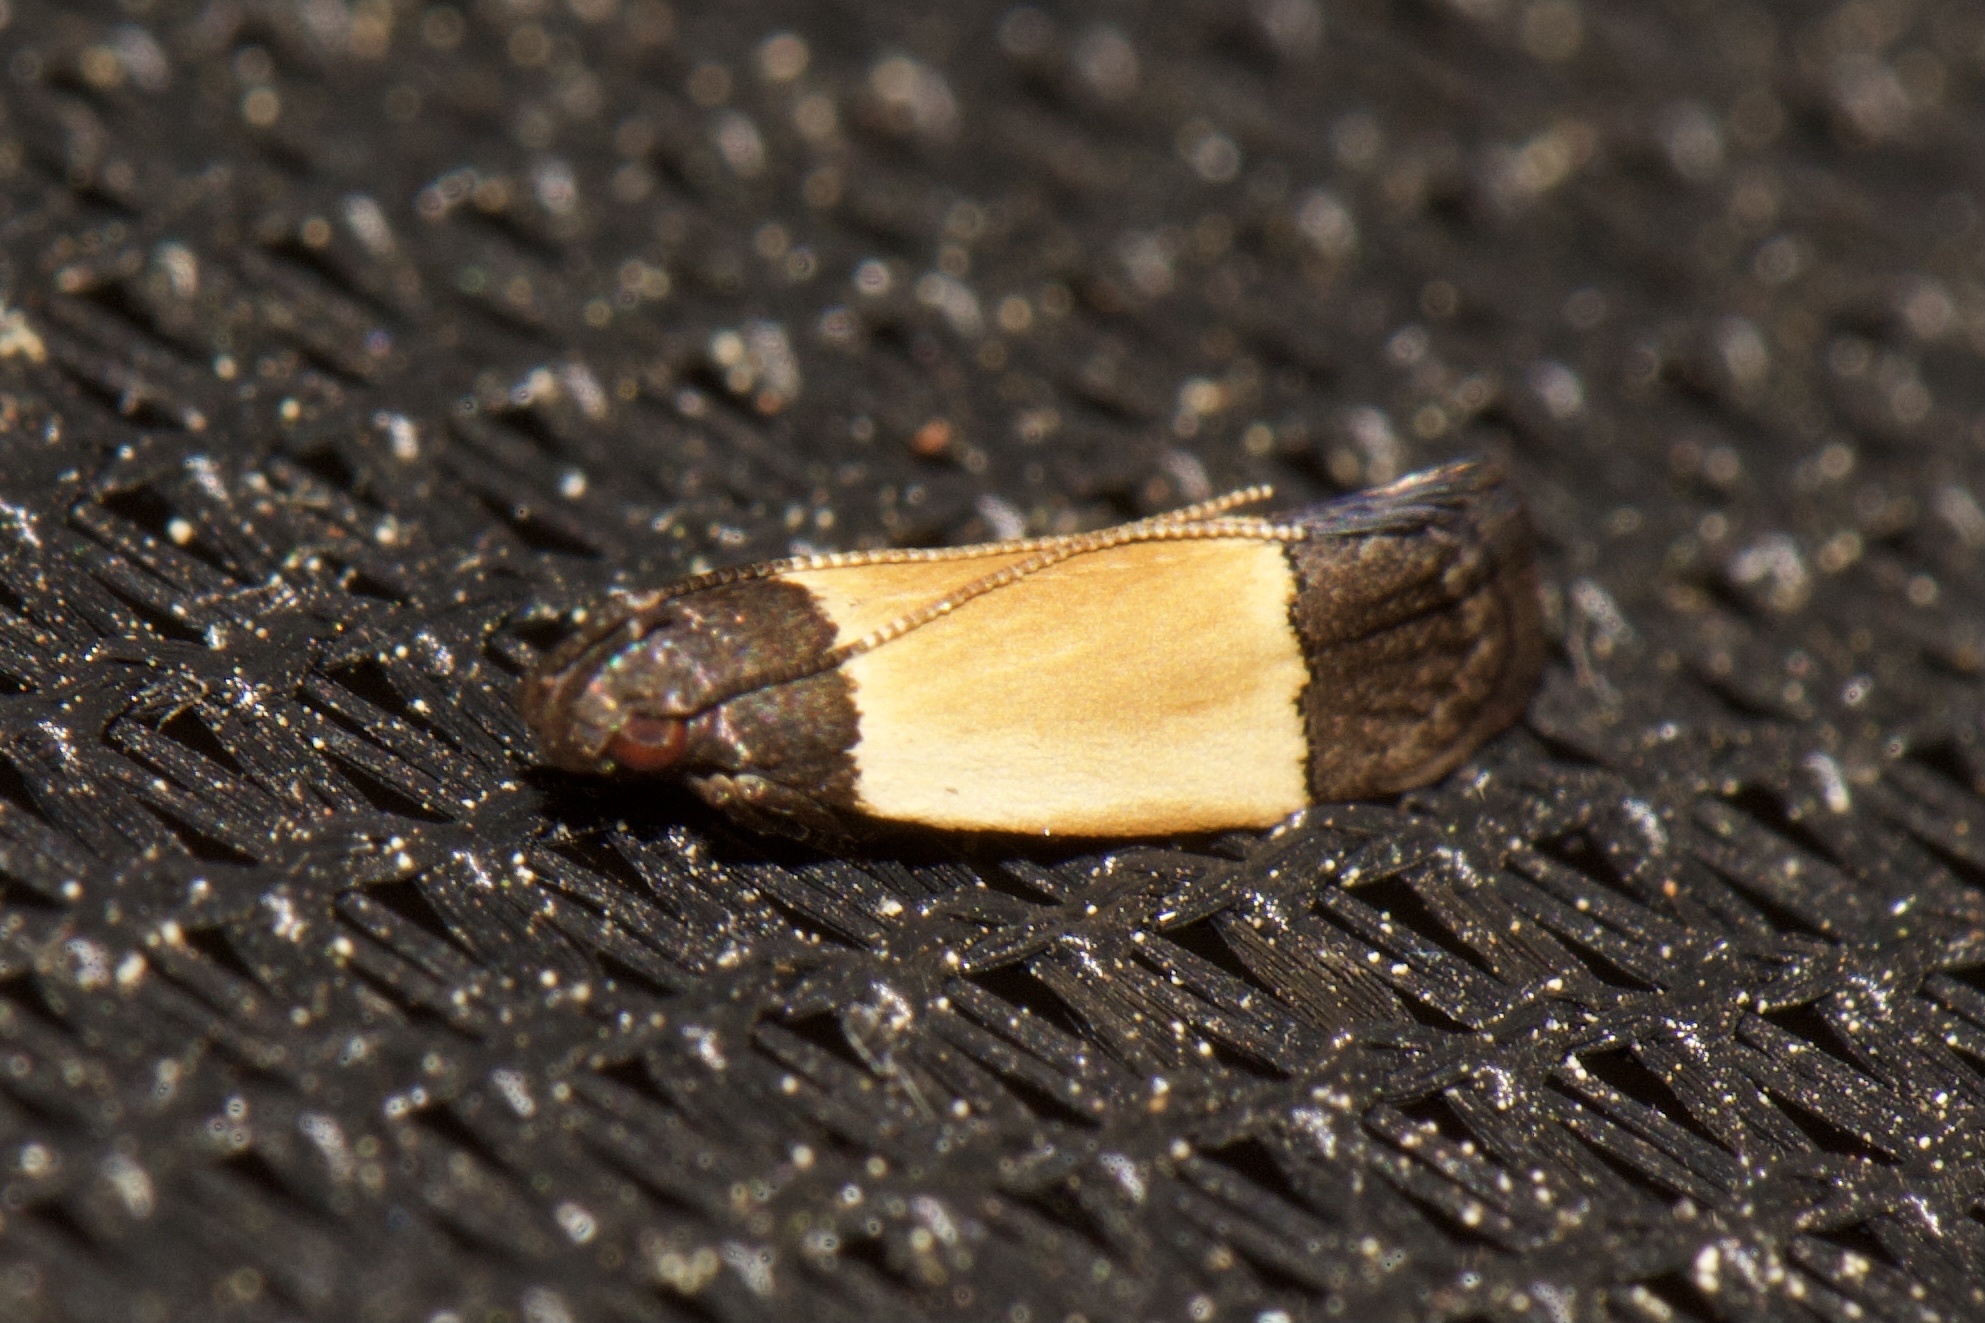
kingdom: Animalia
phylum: Arthropoda
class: Insecta
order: Lepidoptera
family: Gelechiidae
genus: Anacampsis
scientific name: Anacampsis coverdalella
